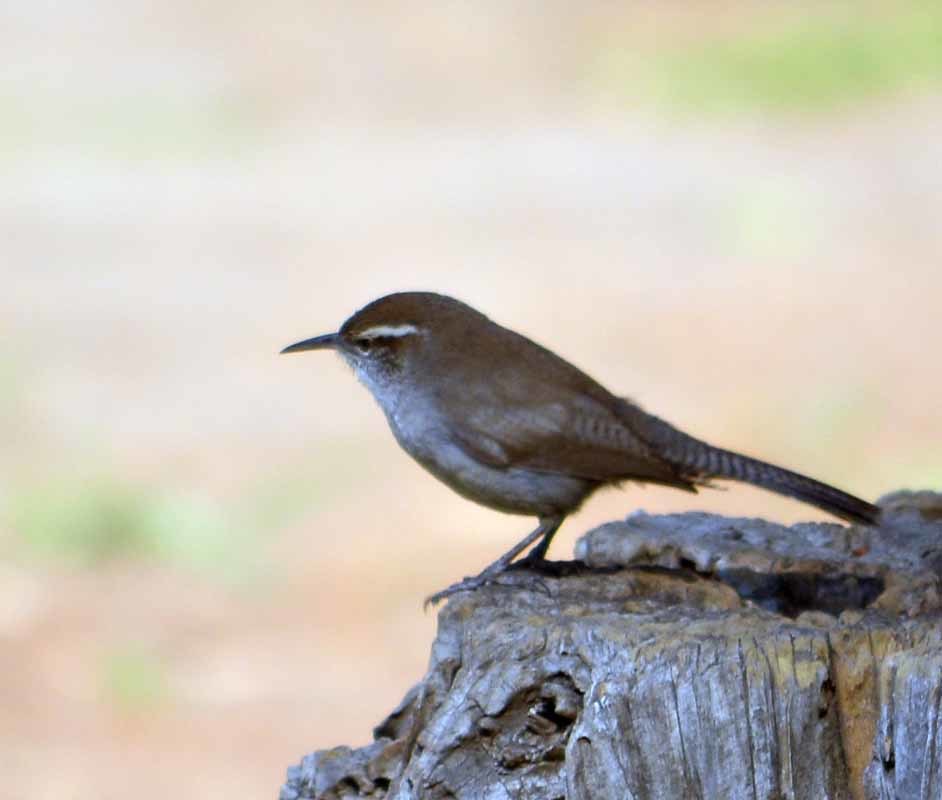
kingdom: Animalia
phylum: Chordata
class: Aves
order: Passeriformes
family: Troglodytidae
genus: Thryomanes
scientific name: Thryomanes bewickii
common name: Bewick's wren
